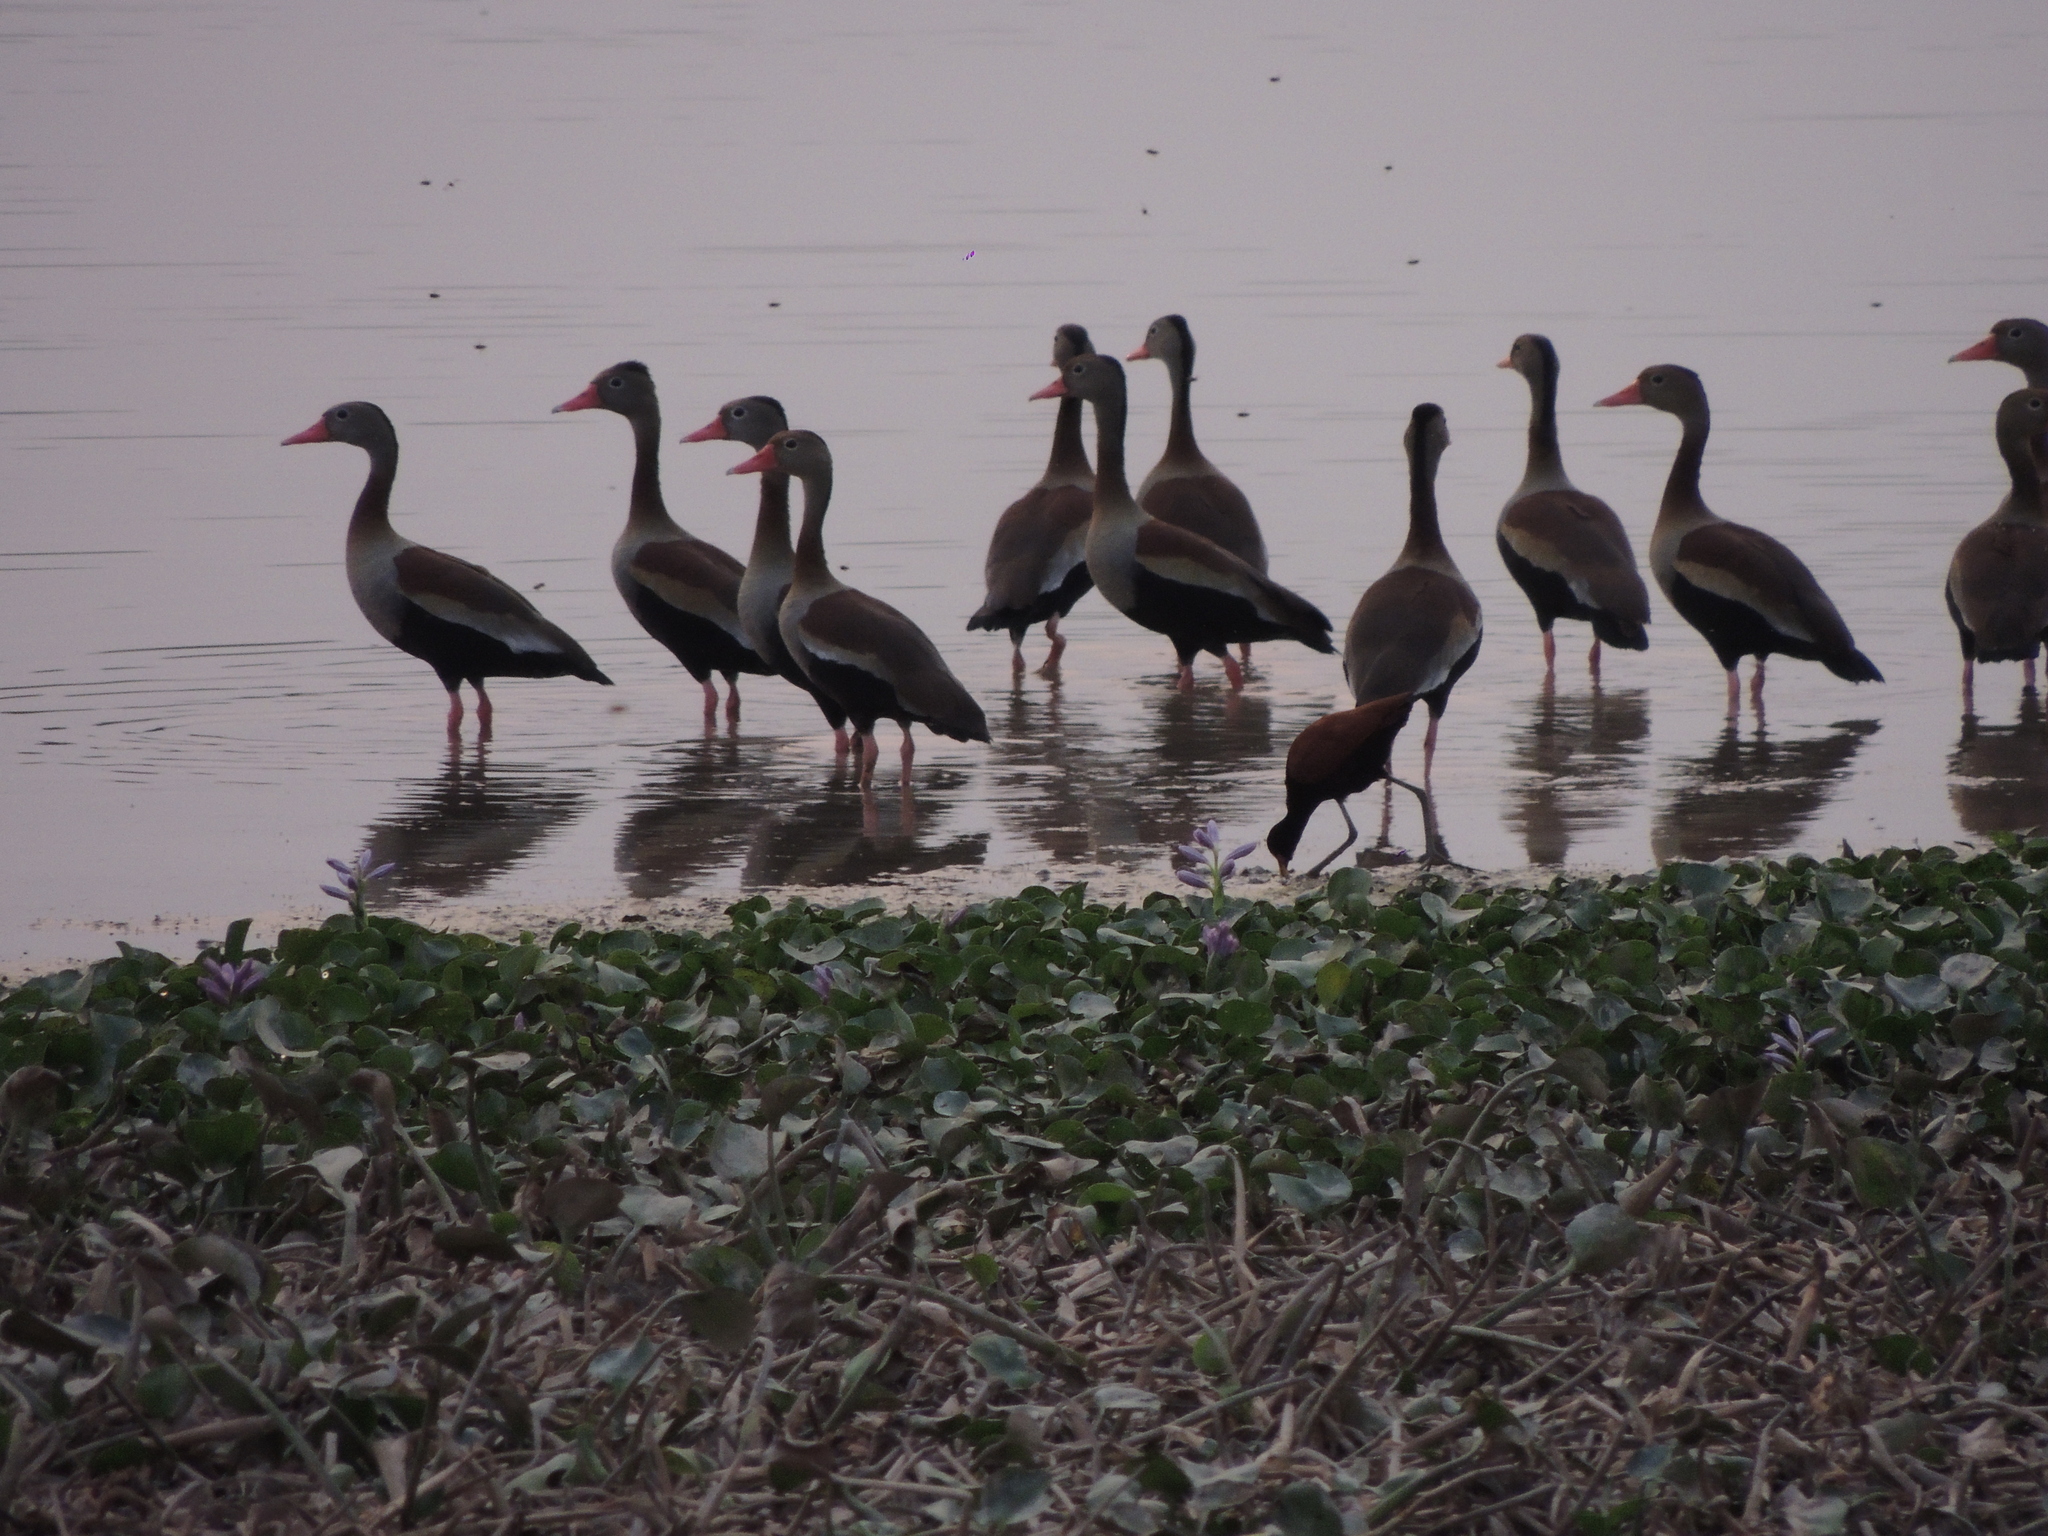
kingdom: Animalia
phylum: Chordata
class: Aves
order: Anseriformes
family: Anatidae
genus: Dendrocygna
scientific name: Dendrocygna autumnalis
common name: Black-bellied whistling duck
